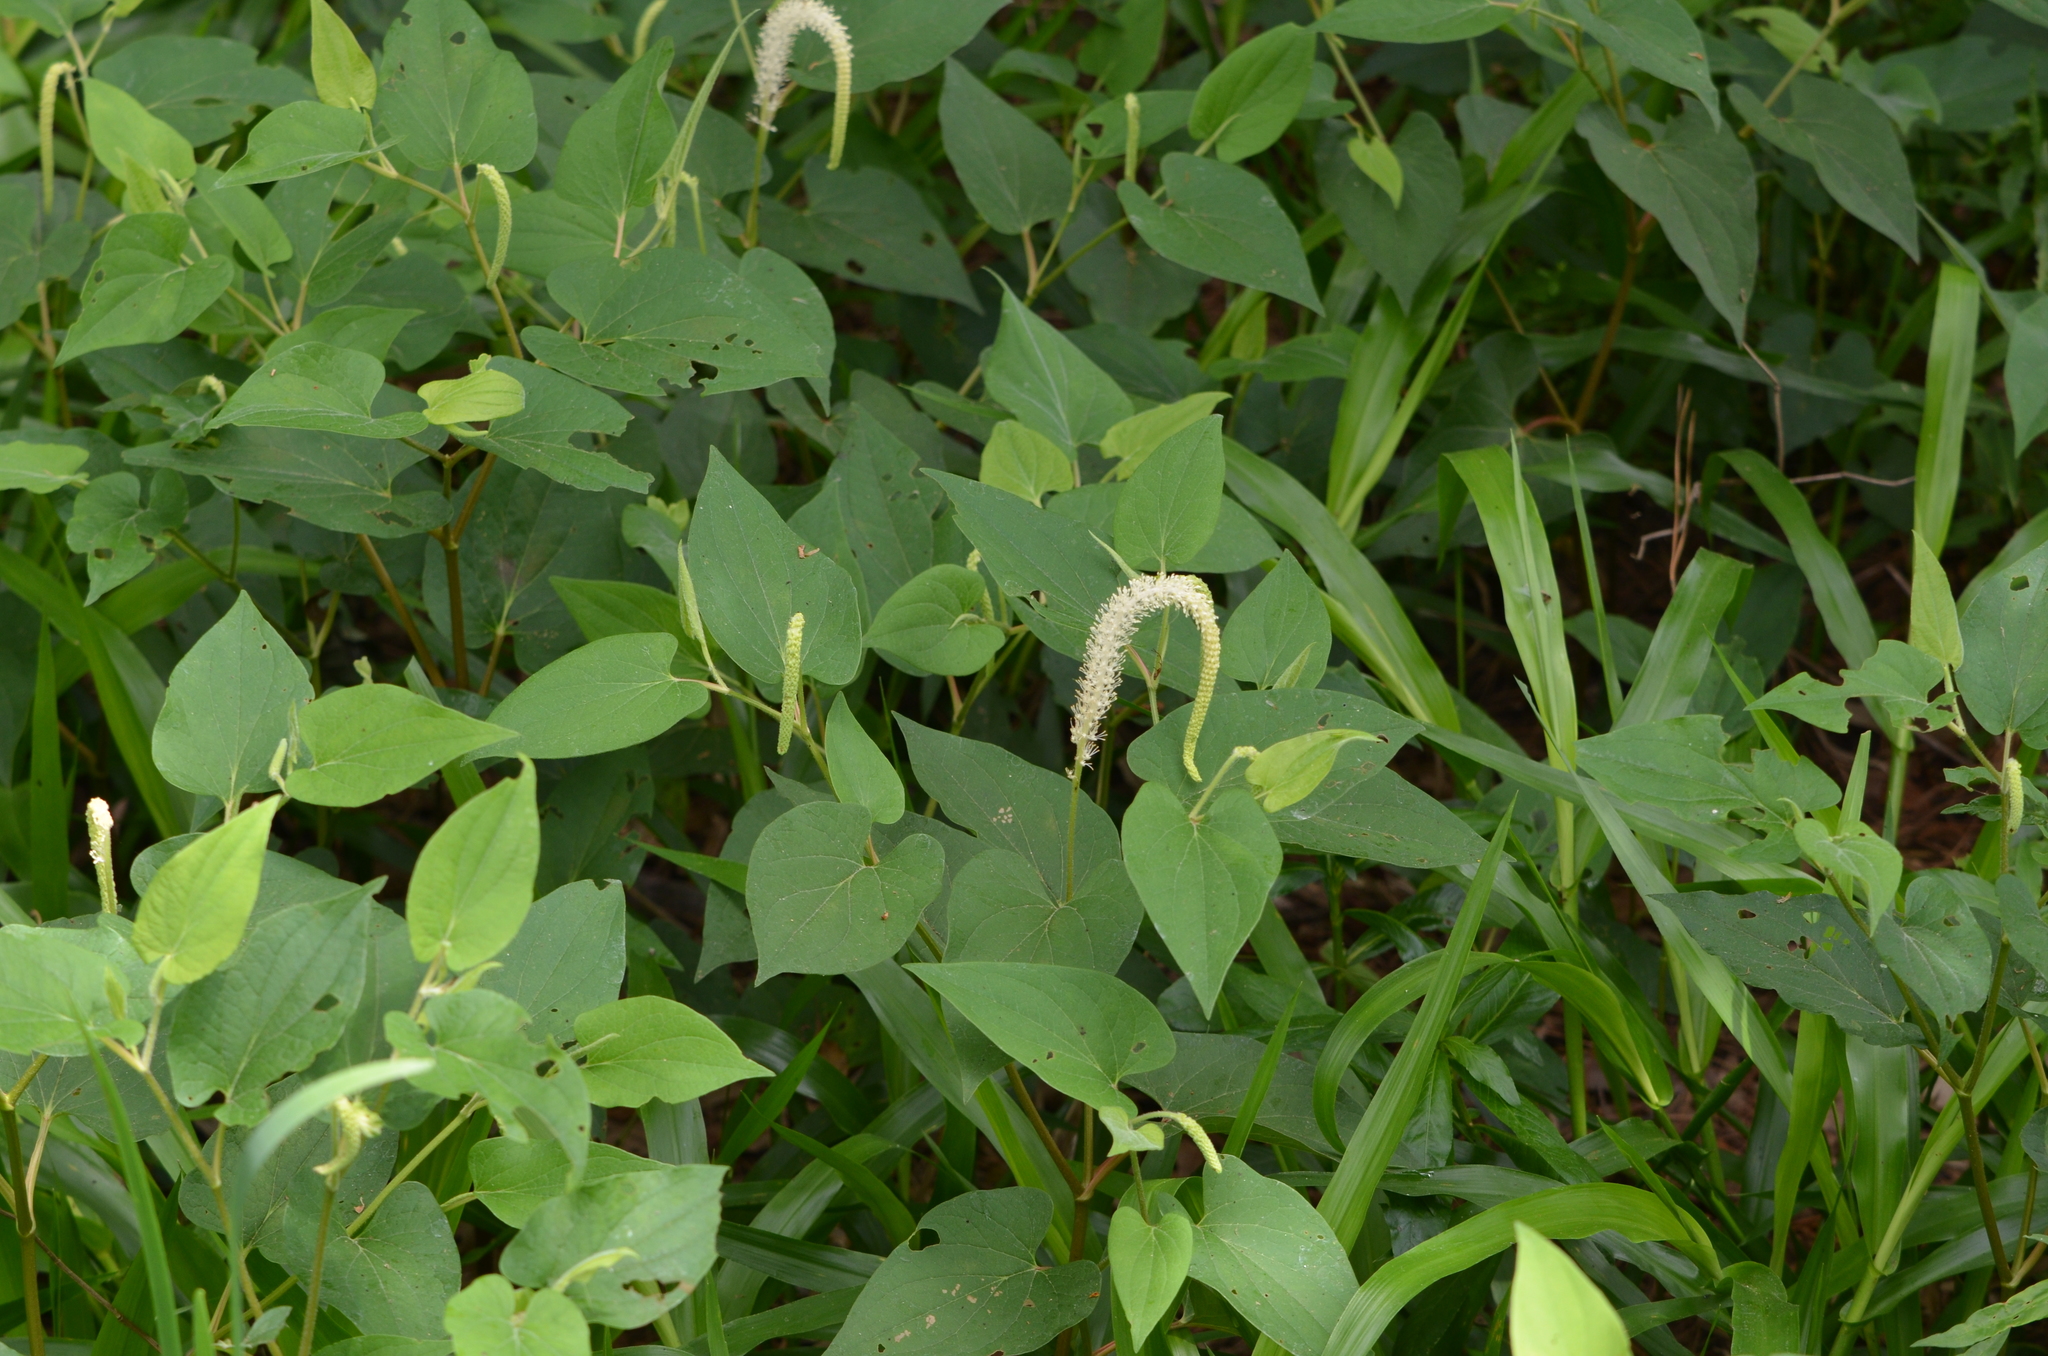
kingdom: Plantae
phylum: Tracheophyta
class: Magnoliopsida
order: Piperales
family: Saururaceae
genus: Saururus
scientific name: Saururus cernuus
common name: Lizard's-tail
